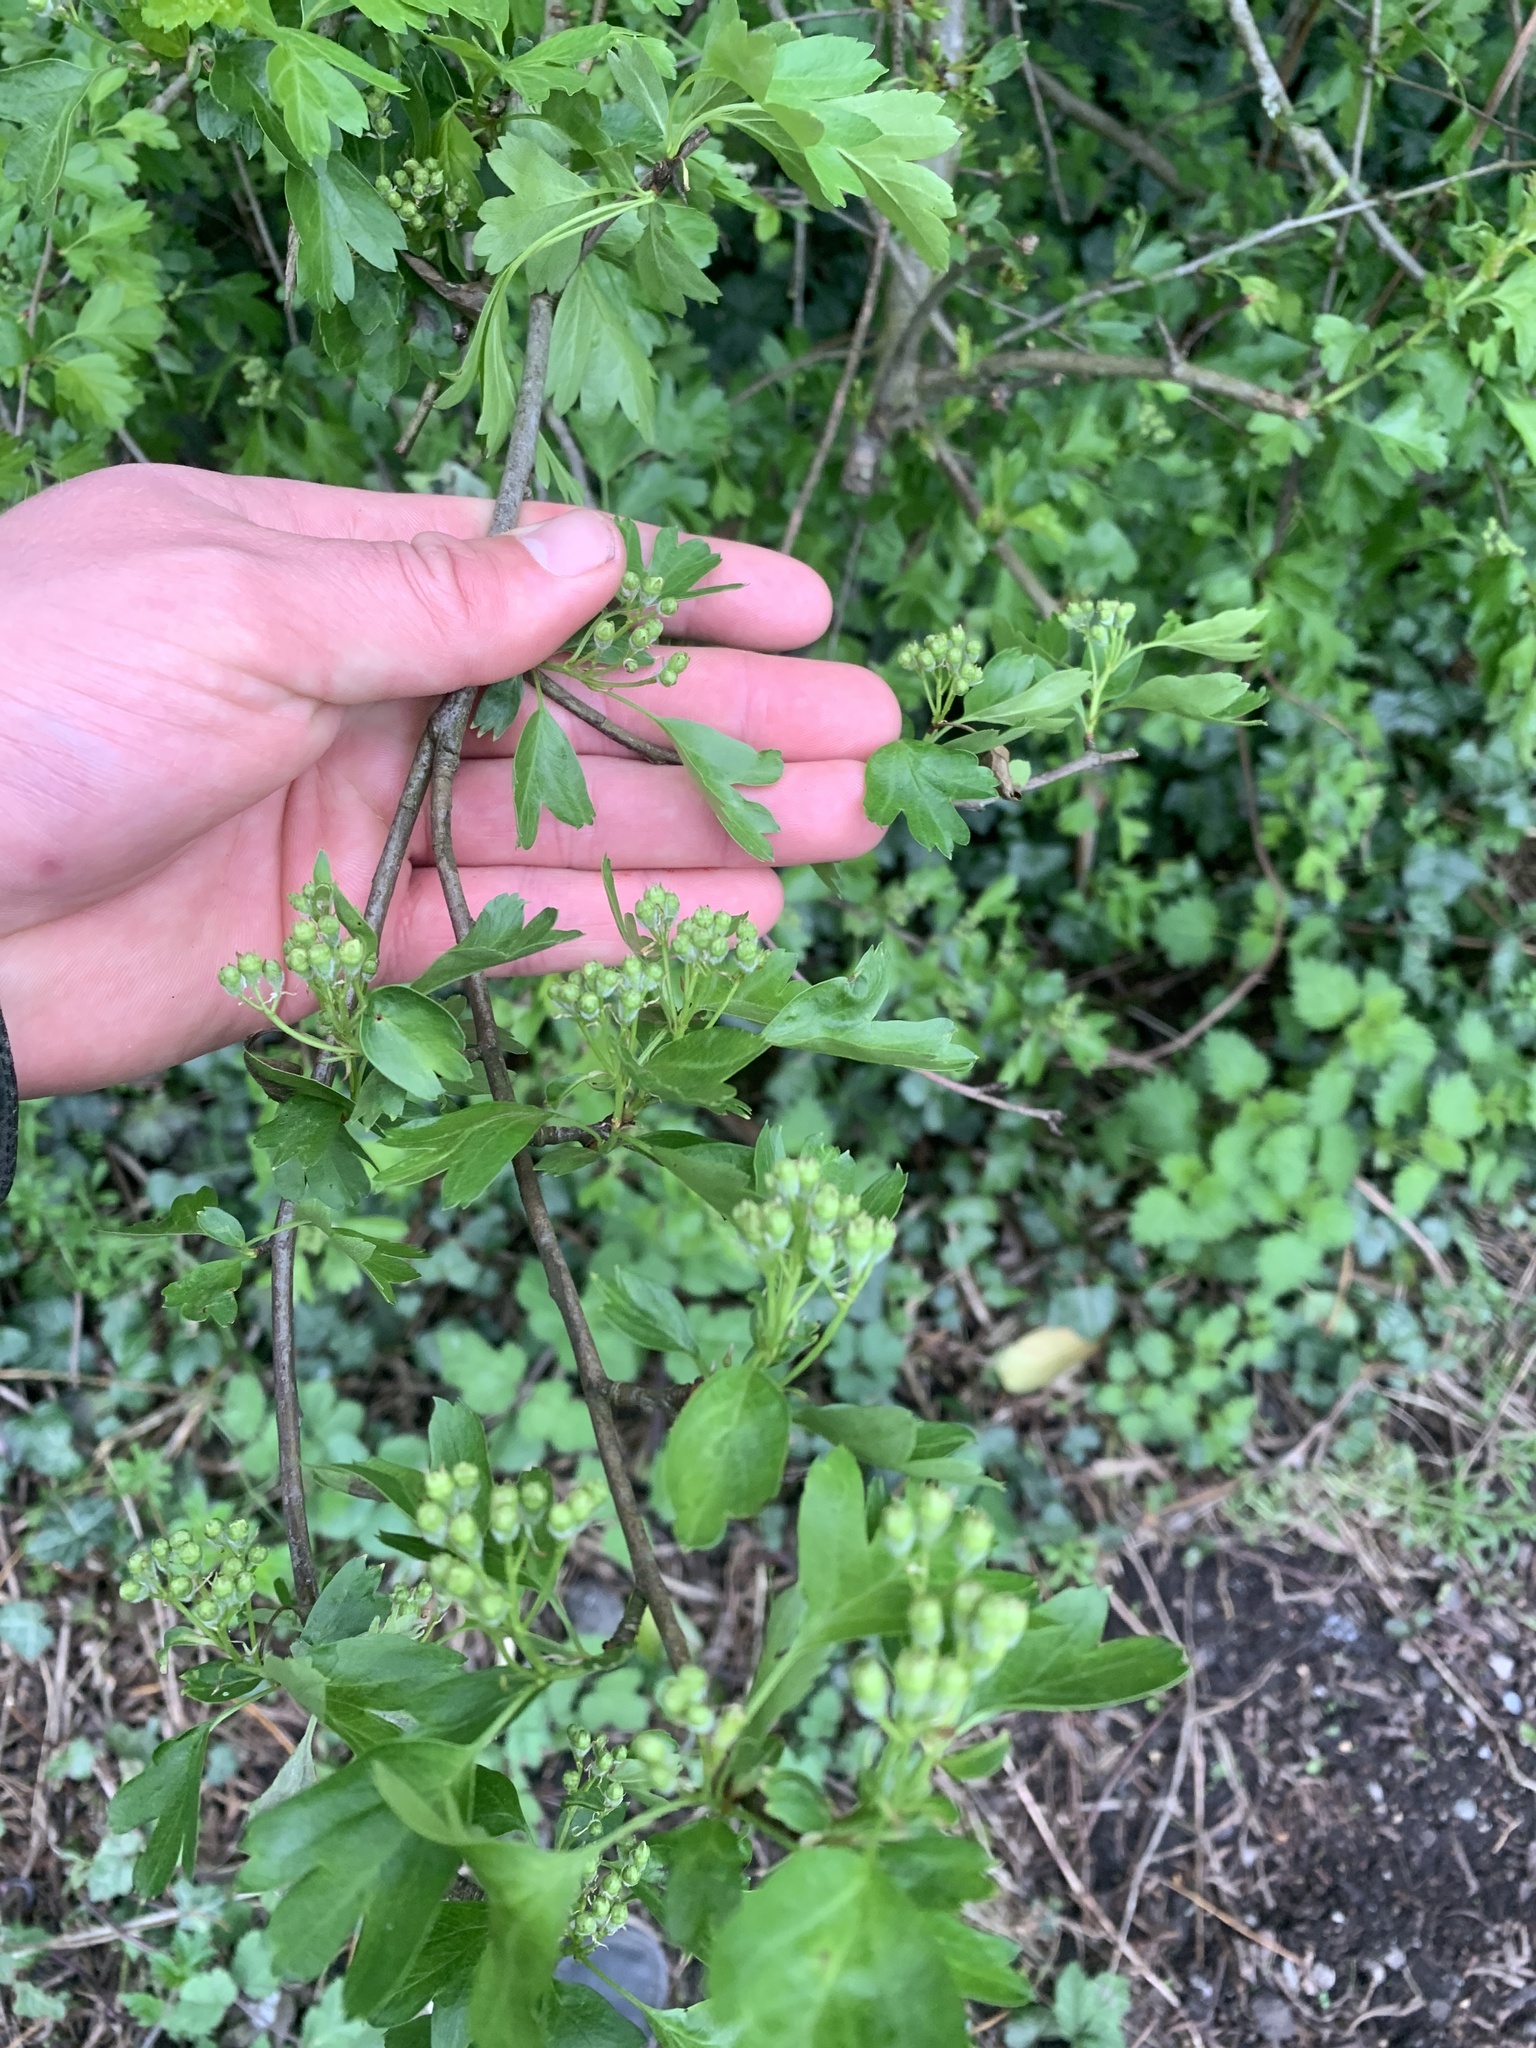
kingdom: Plantae
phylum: Tracheophyta
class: Magnoliopsida
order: Rosales
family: Rosaceae
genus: Crataegus
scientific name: Crataegus monogyna
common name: Hawthorn
